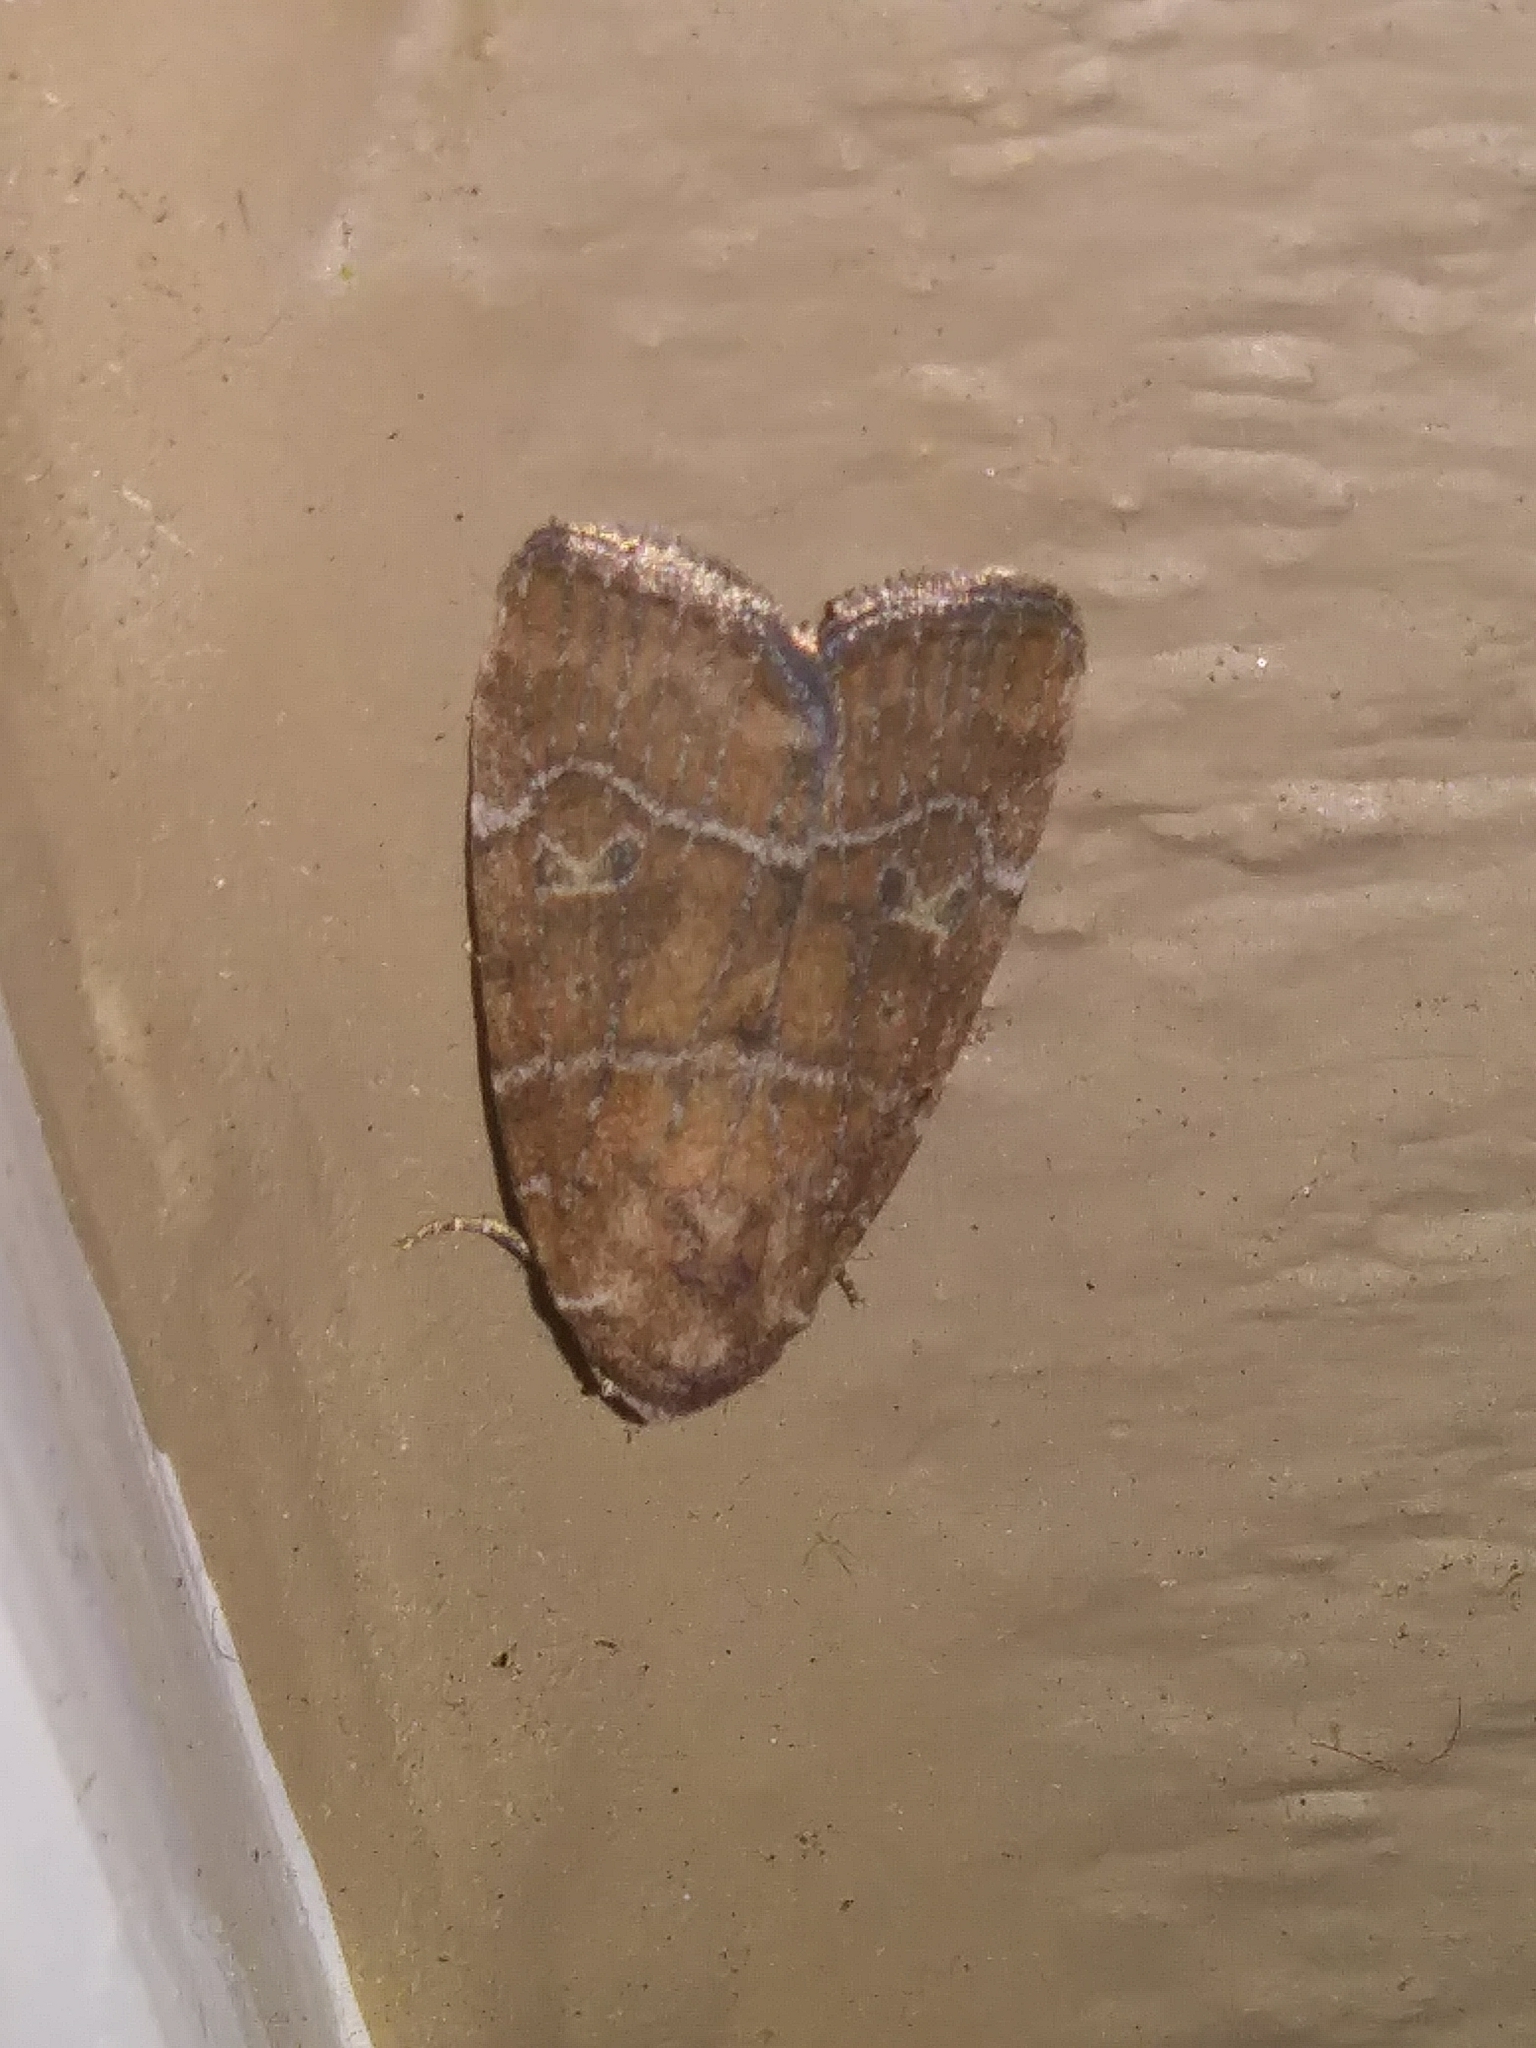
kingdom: Animalia
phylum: Arthropoda
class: Insecta
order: Lepidoptera
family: Noctuidae
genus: Elaphria
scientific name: Elaphria grata
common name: Grateful midget moth
